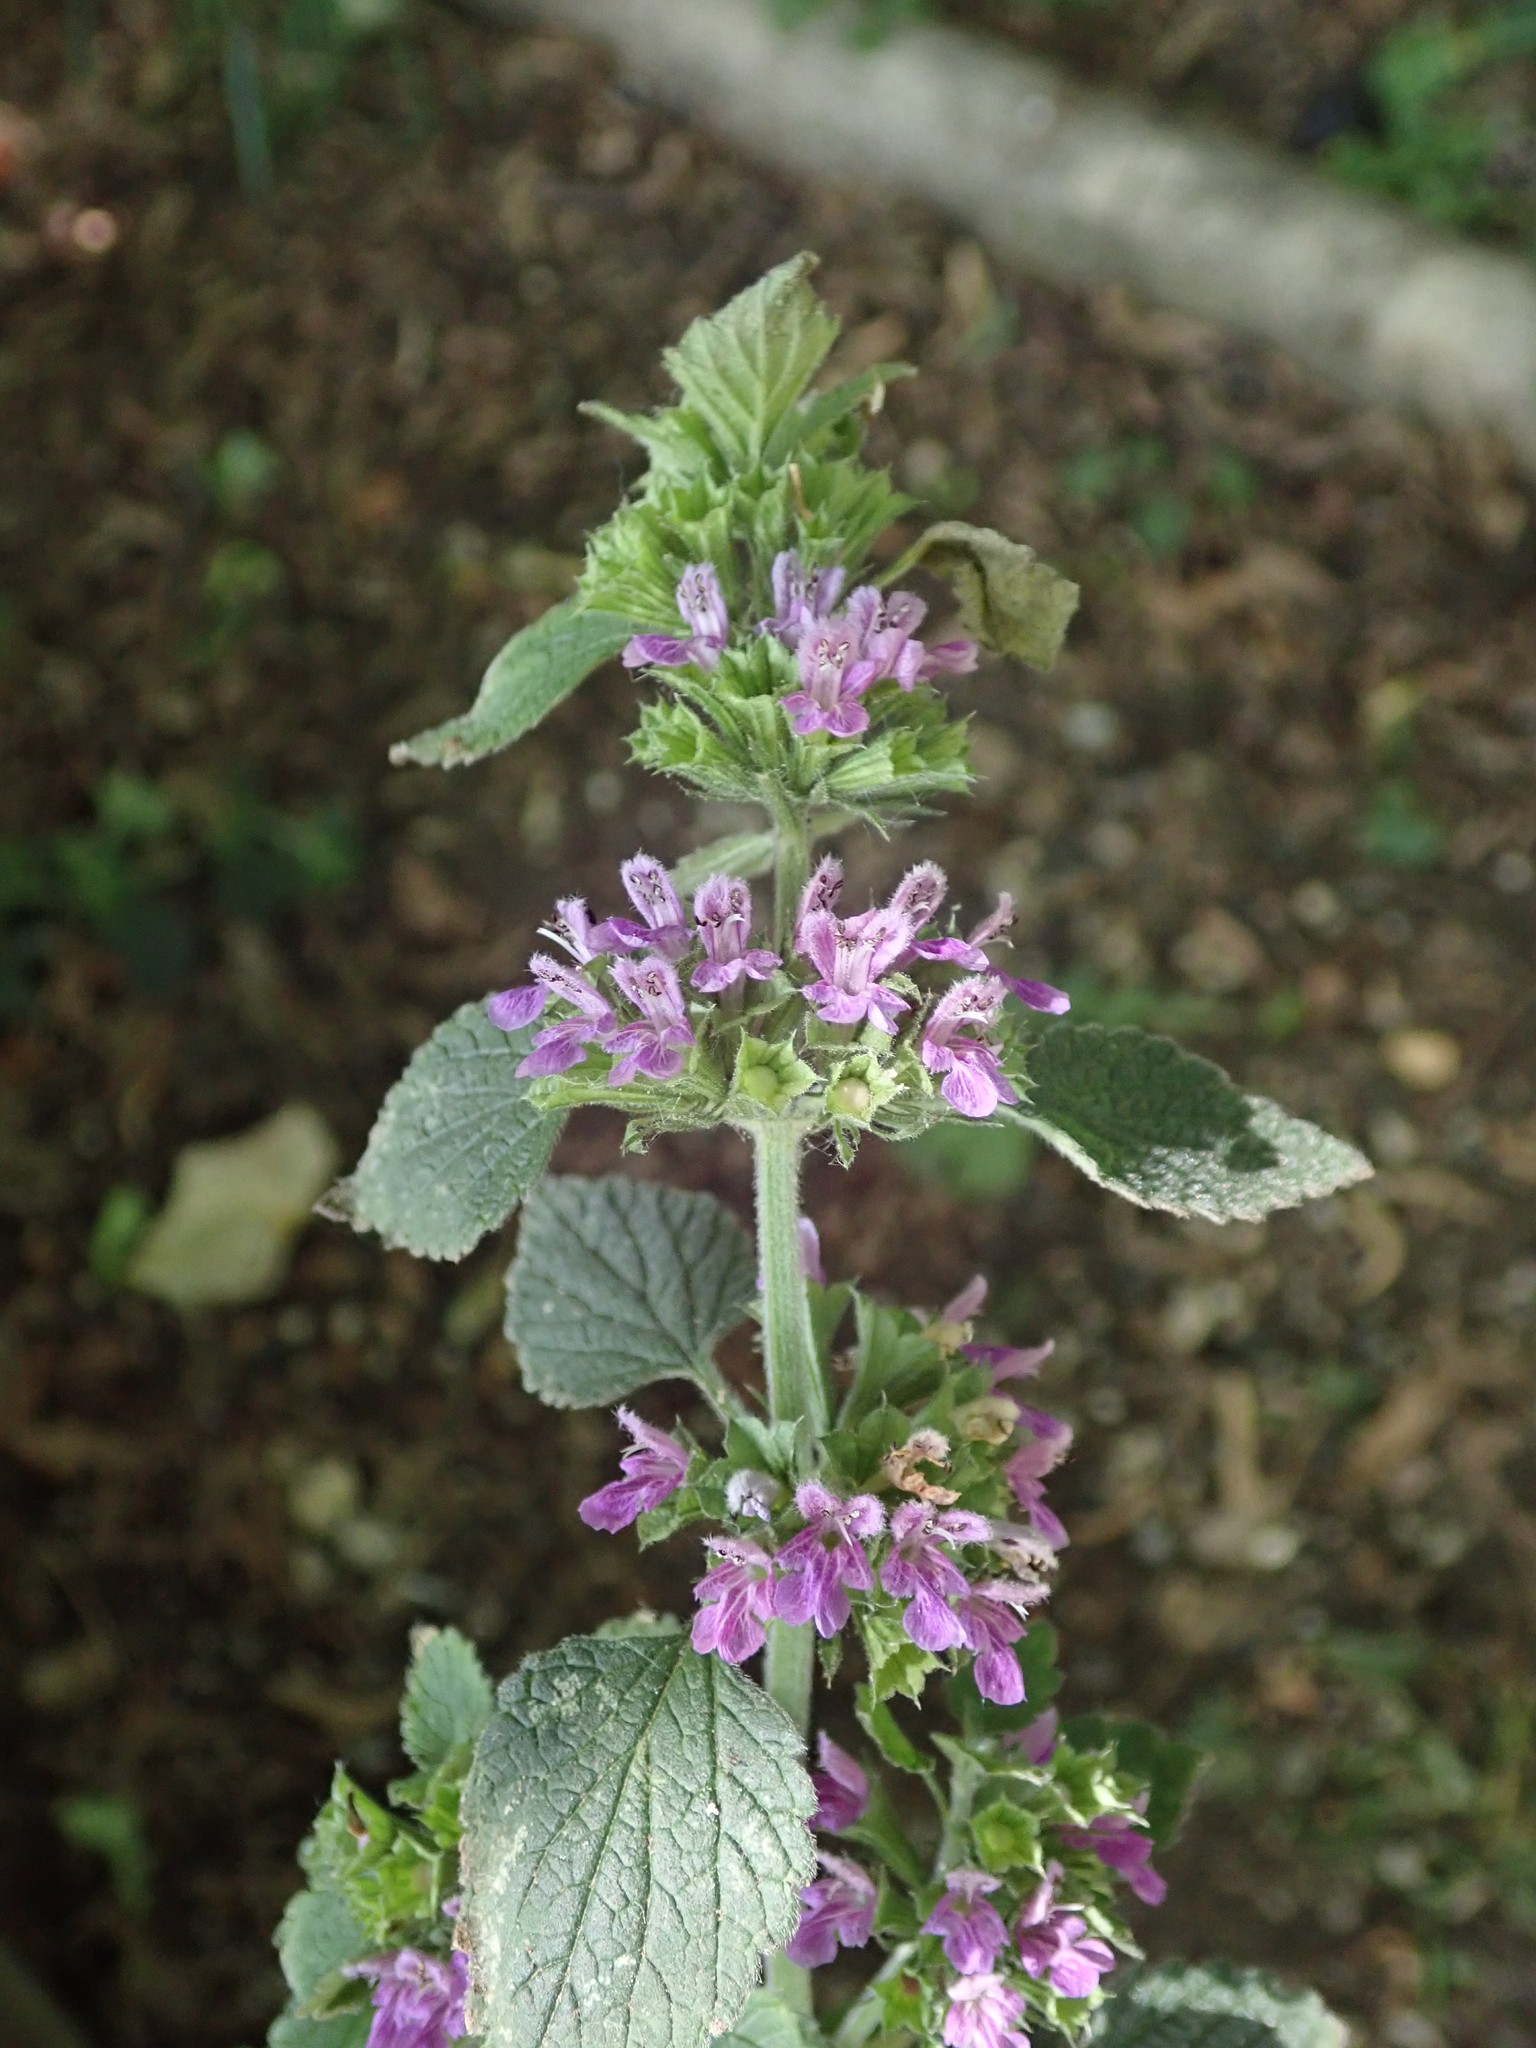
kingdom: Plantae
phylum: Tracheophyta
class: Magnoliopsida
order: Lamiales
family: Lamiaceae
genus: Ballota
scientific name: Ballota nigra
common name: Black horehound
